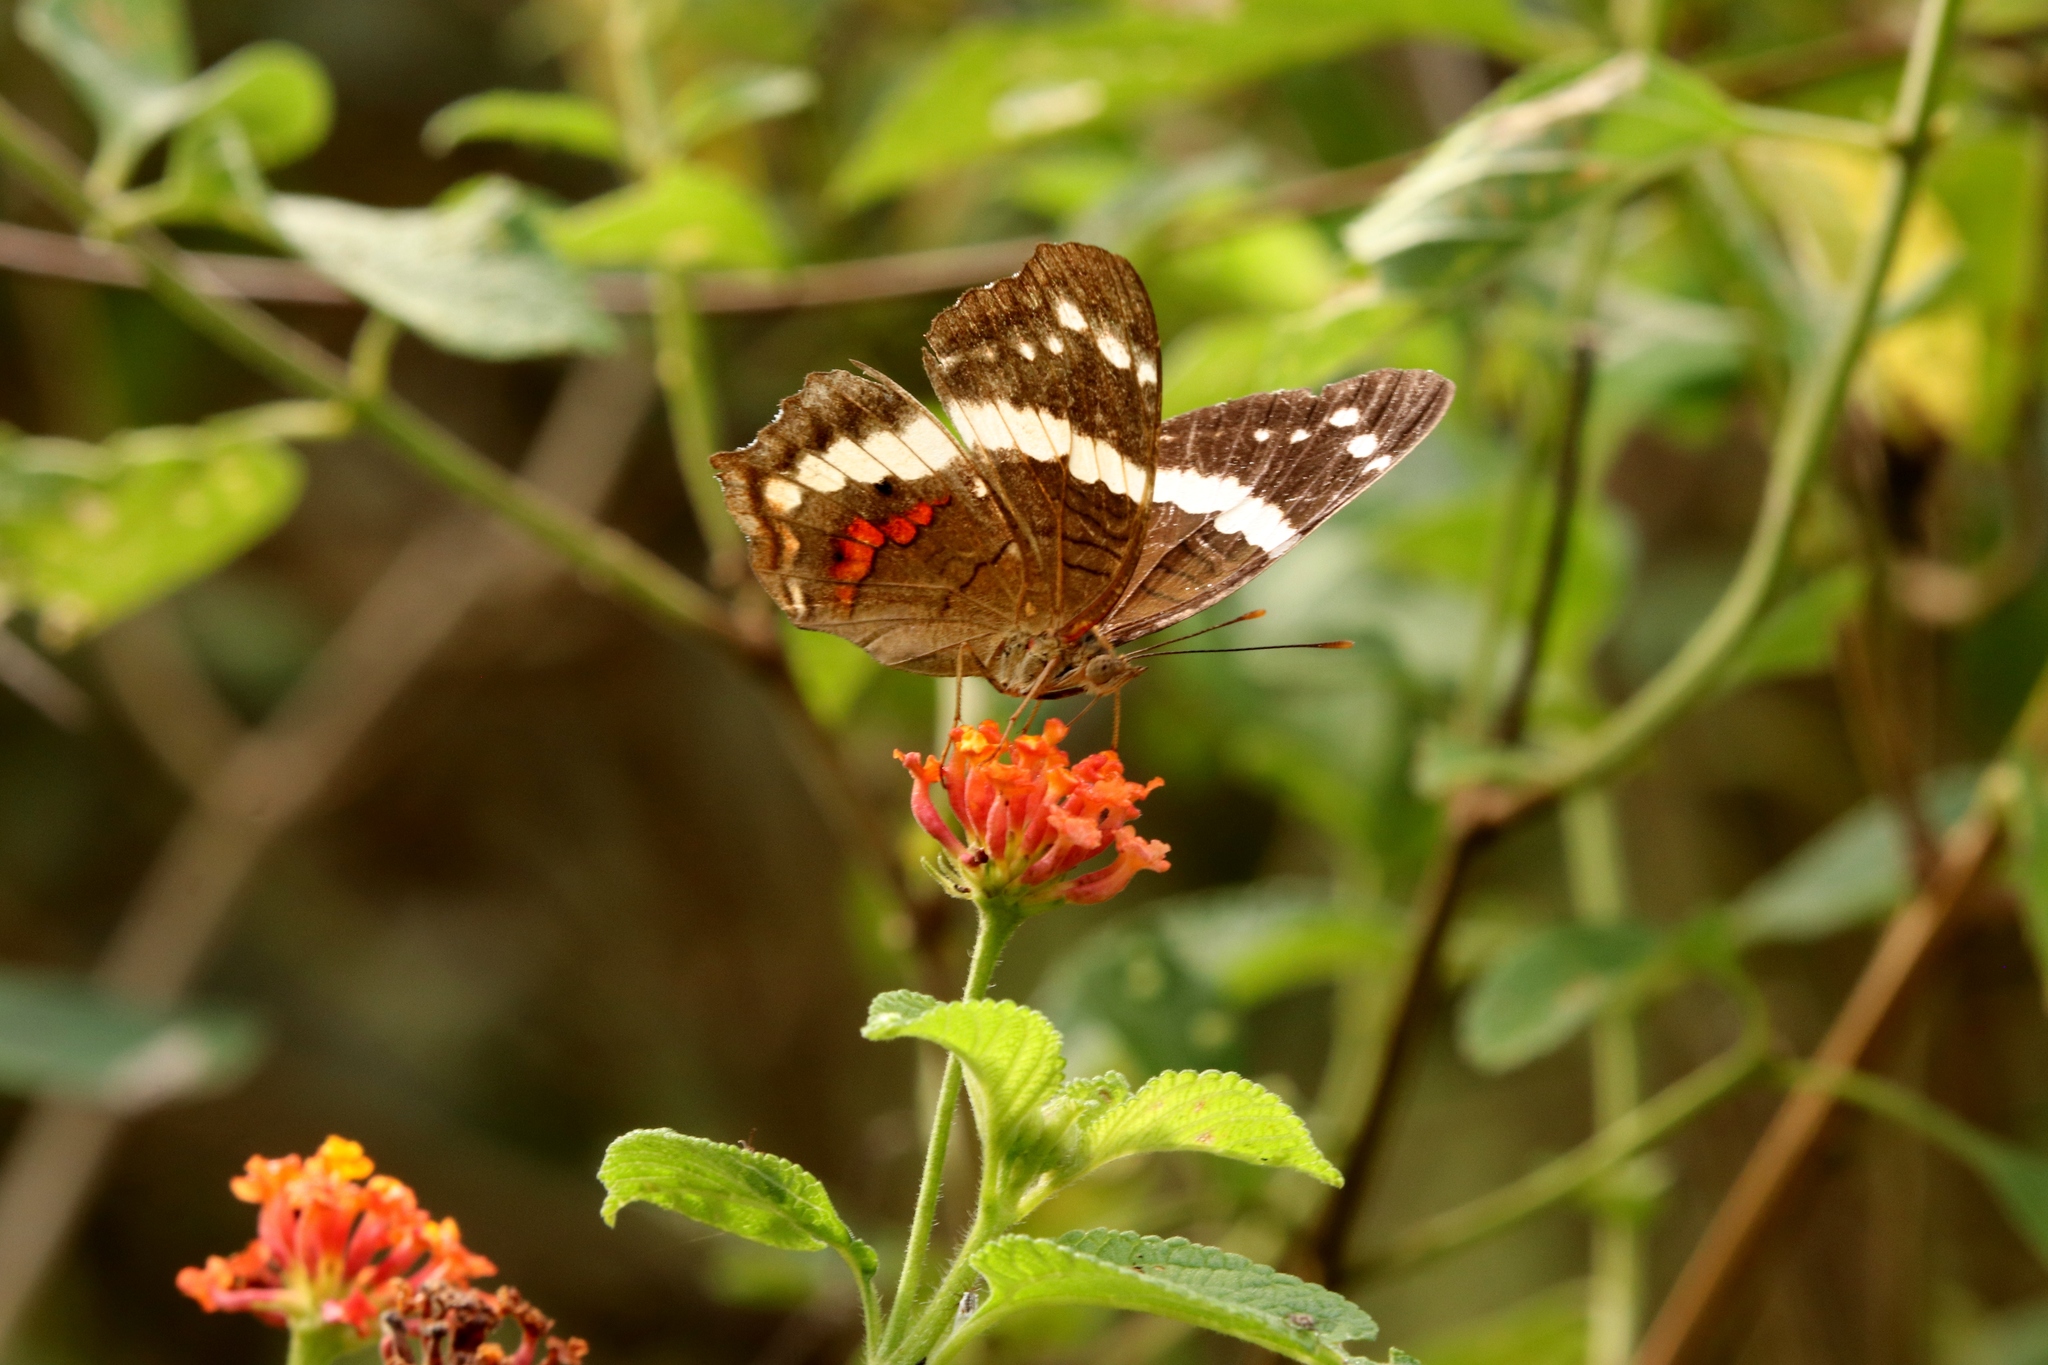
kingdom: Animalia
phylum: Arthropoda
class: Insecta
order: Lepidoptera
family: Nymphalidae
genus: Anartia
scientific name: Anartia fatima
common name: Banded peacock
